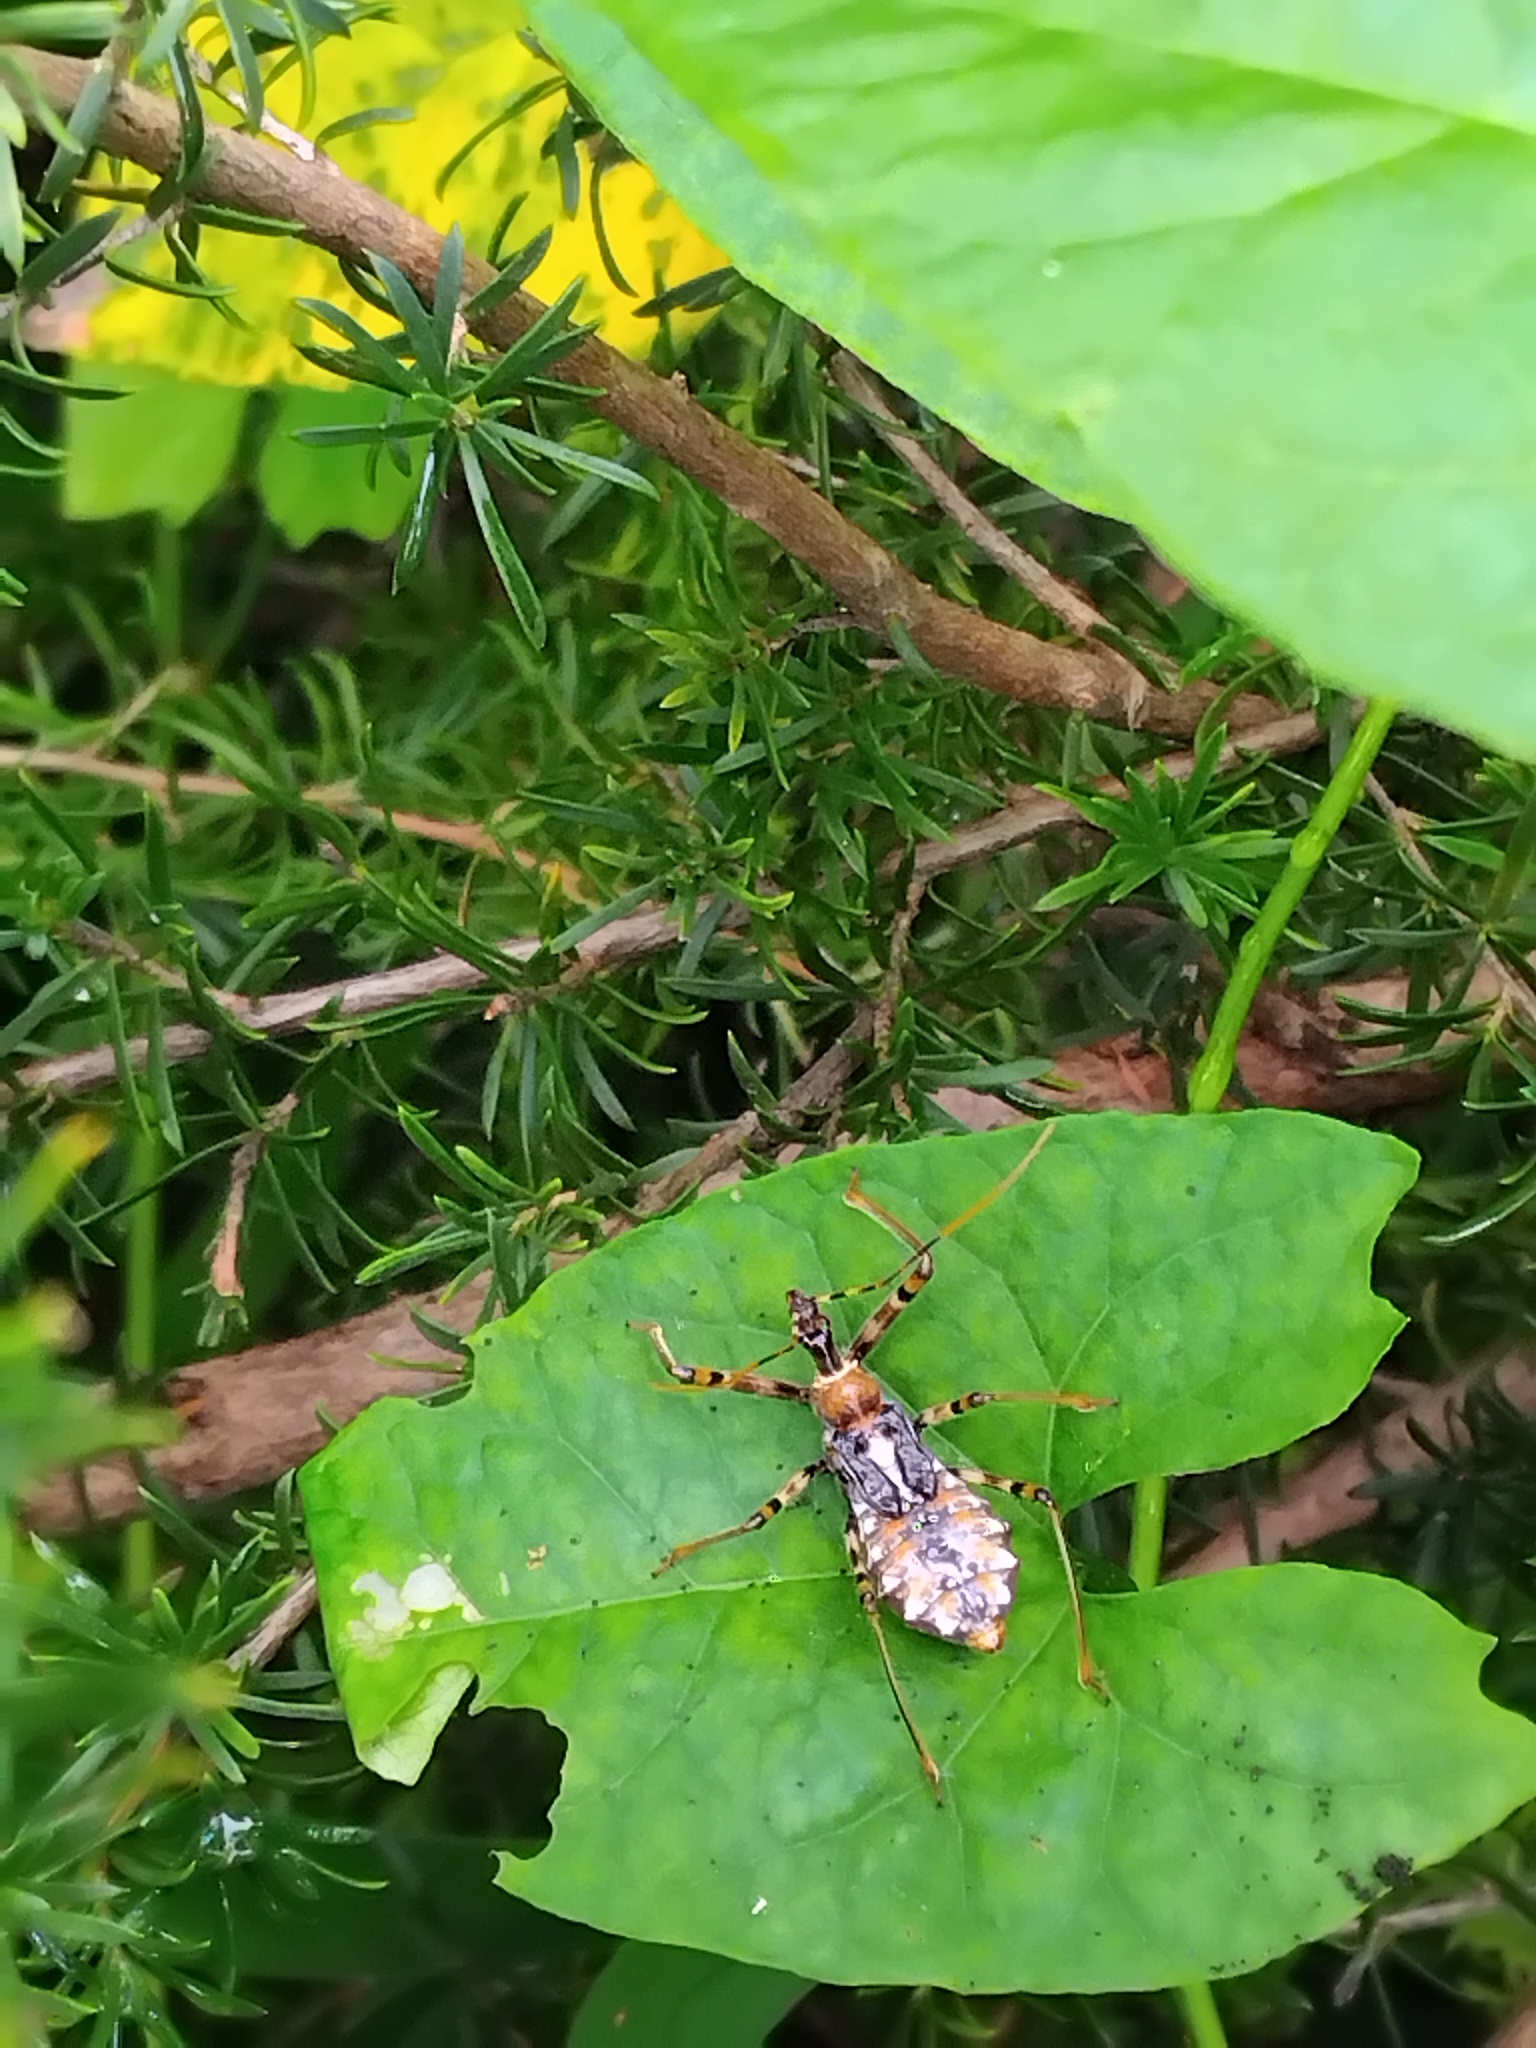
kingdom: Animalia
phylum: Arthropoda
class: Insecta
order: Hemiptera
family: Reduviidae
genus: Pristhesancus
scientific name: Pristhesancus plagipennis
